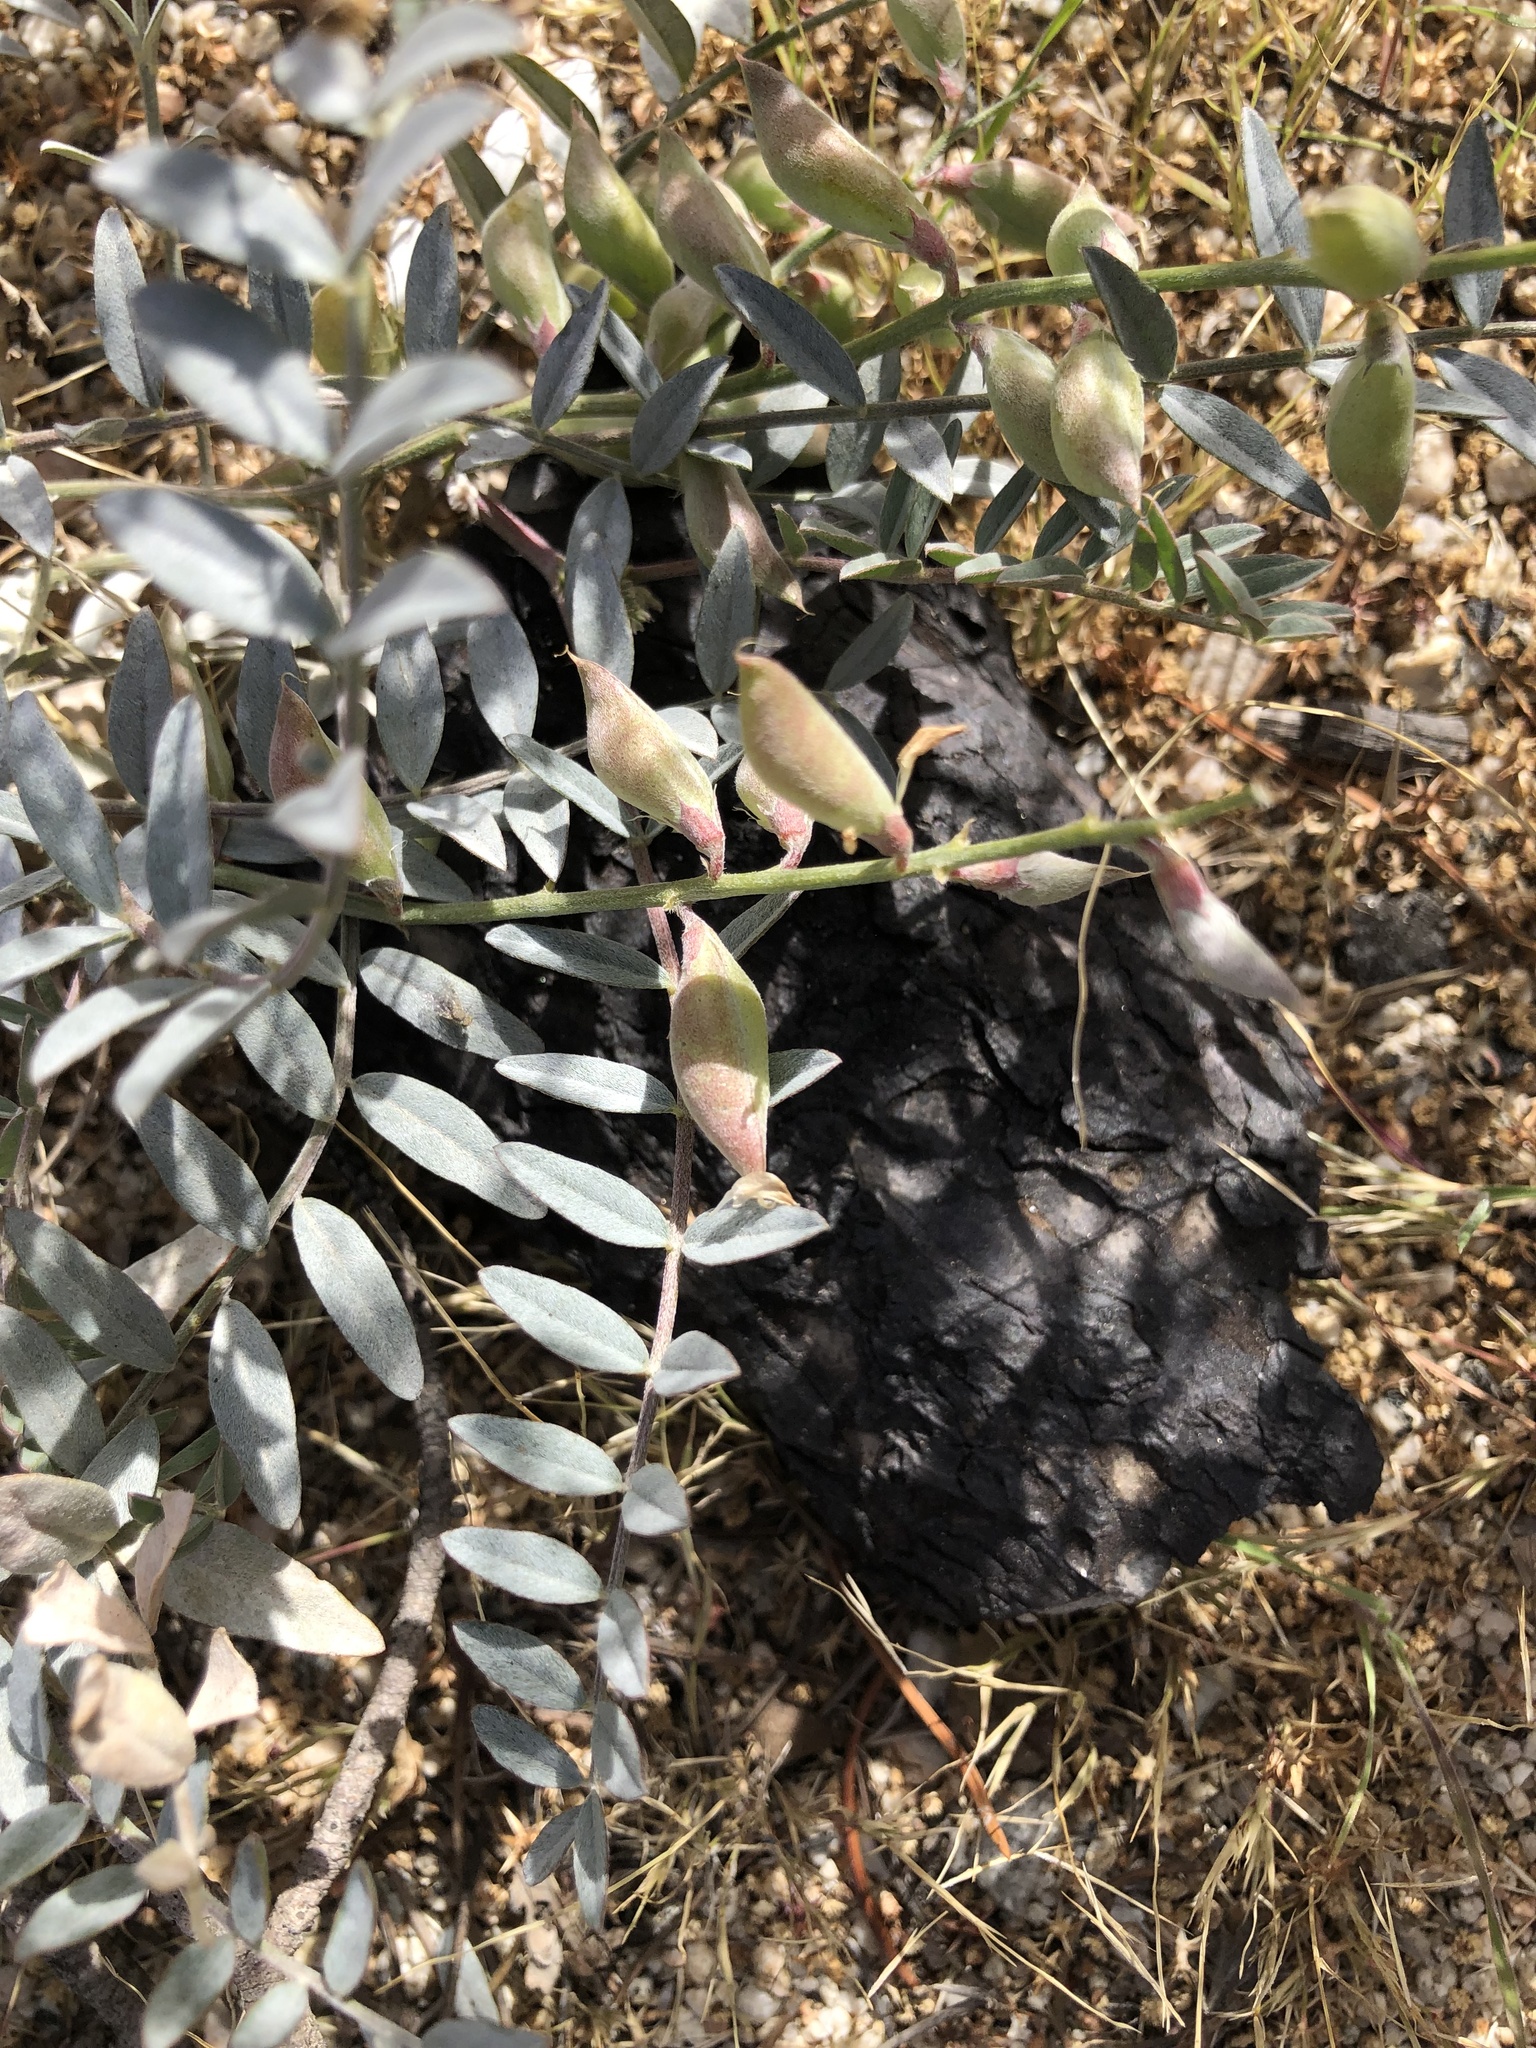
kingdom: Plantae
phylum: Tracheophyta
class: Magnoliopsida
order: Fabales
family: Fabaceae
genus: Astragalus
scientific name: Astragalus palmeri
